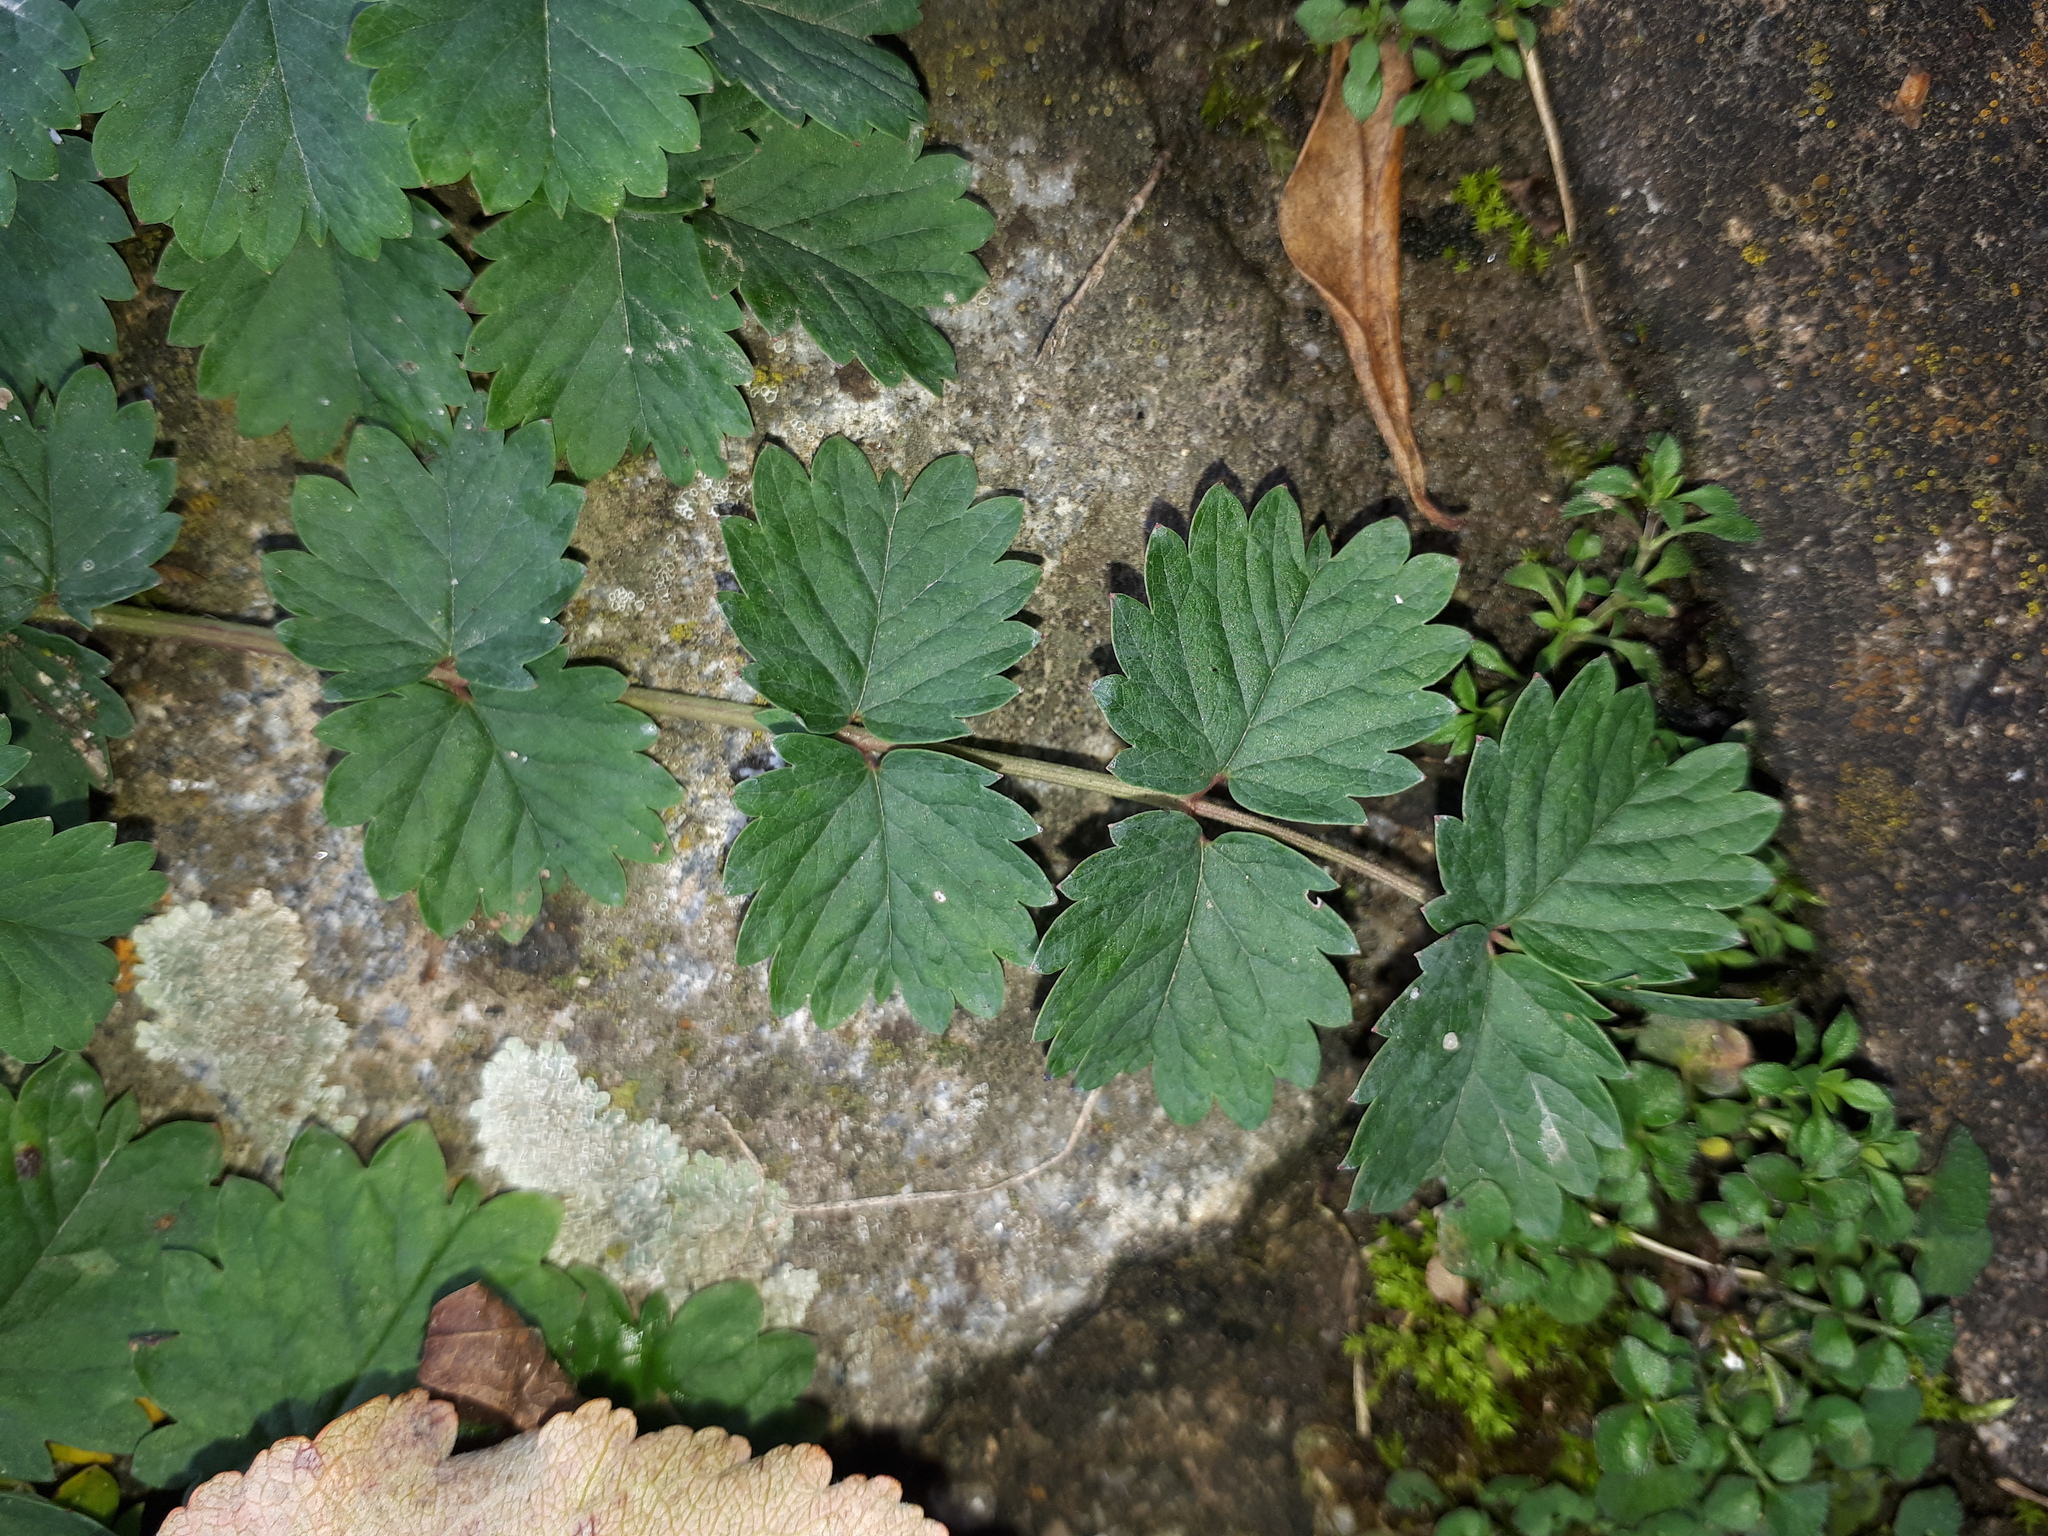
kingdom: Plantae
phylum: Tracheophyta
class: Magnoliopsida
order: Rosales
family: Rosaceae
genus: Poterium
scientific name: Poterium sanguisorba
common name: Salad burnet
